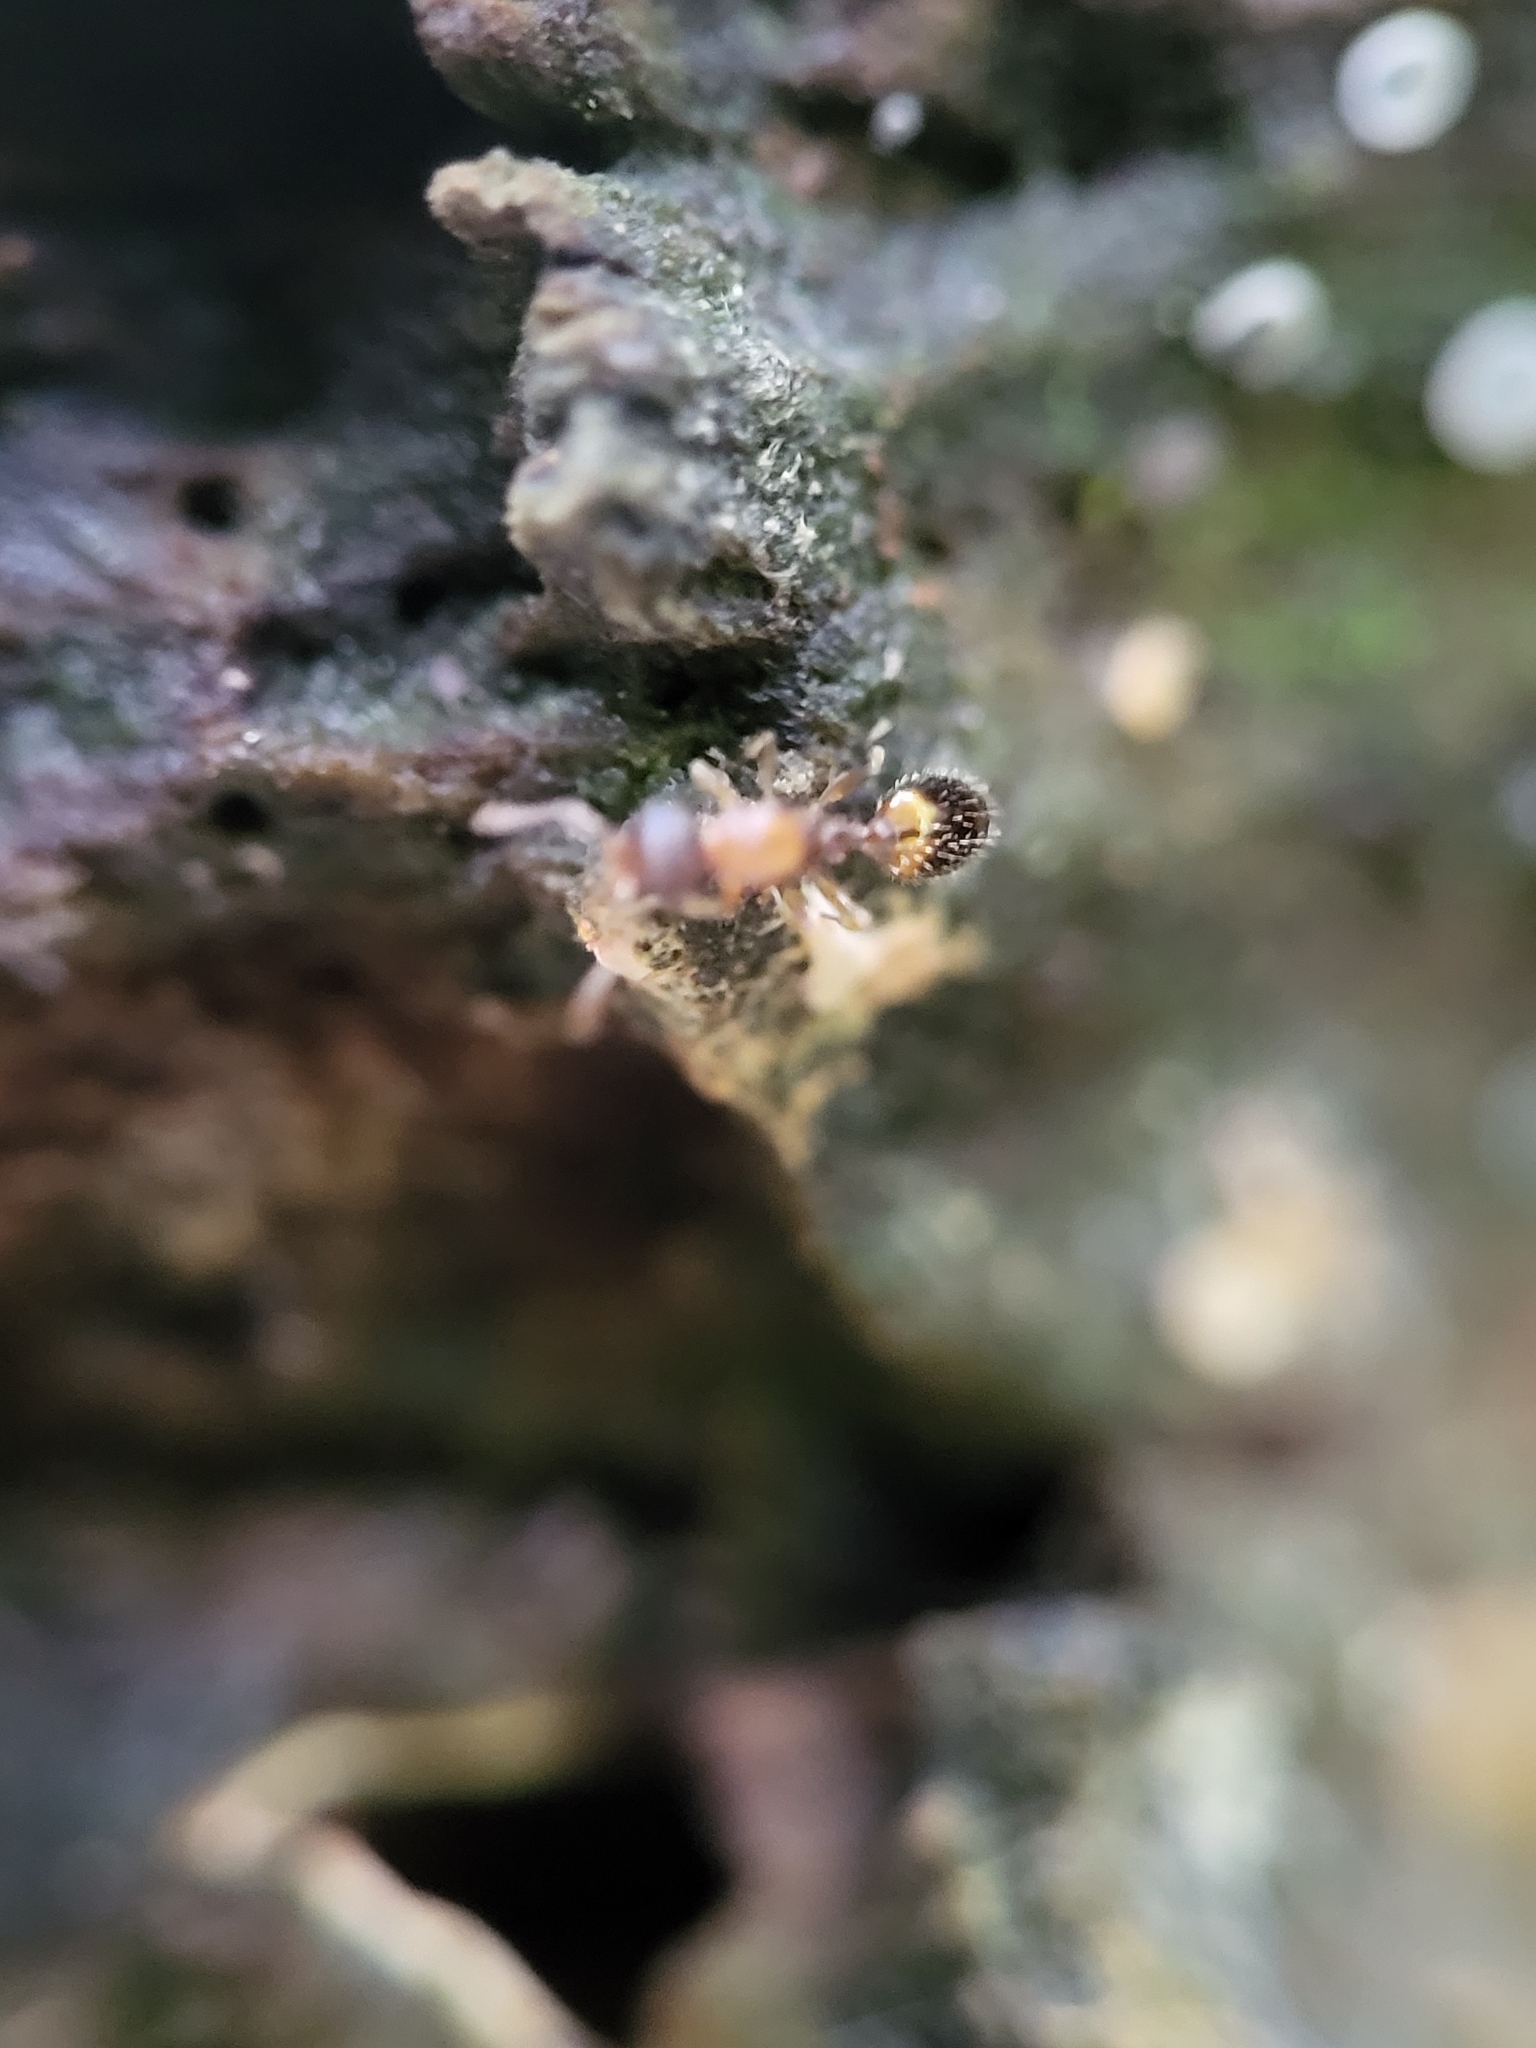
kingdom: Animalia
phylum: Arthropoda
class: Insecta
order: Hymenoptera
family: Formicidae
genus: Temnothorax
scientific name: Temnothorax
